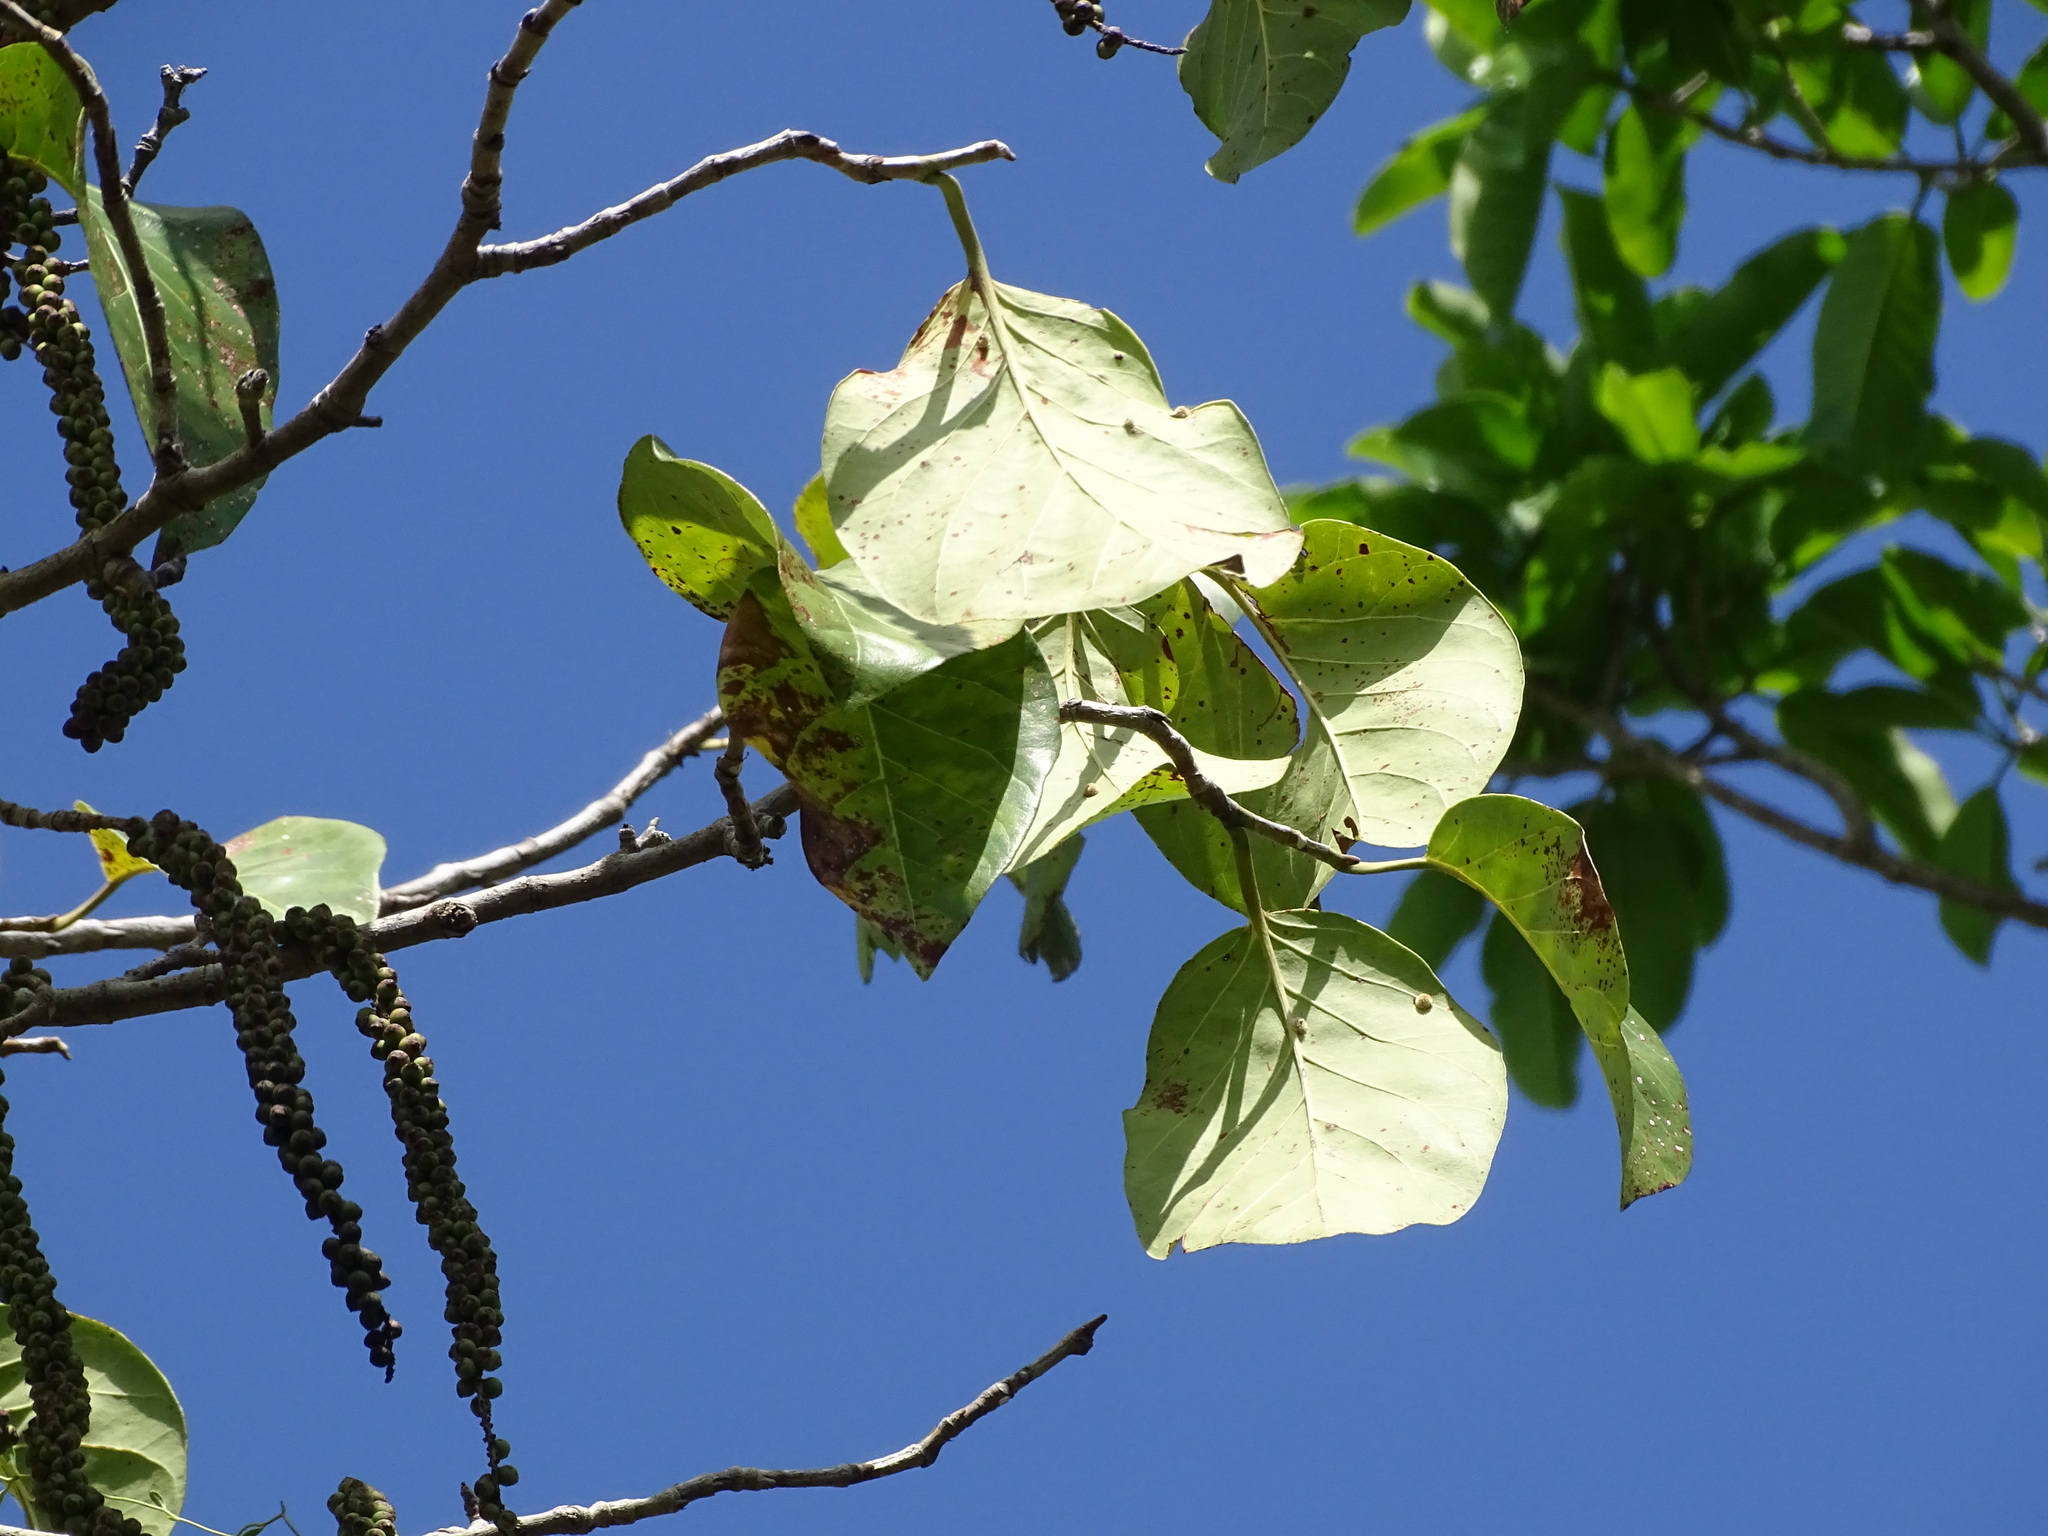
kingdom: Plantae
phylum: Tracheophyta
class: Magnoliopsida
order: Caryophyllales
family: Polygonaceae
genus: Coccoloba
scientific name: Coccoloba spicata
